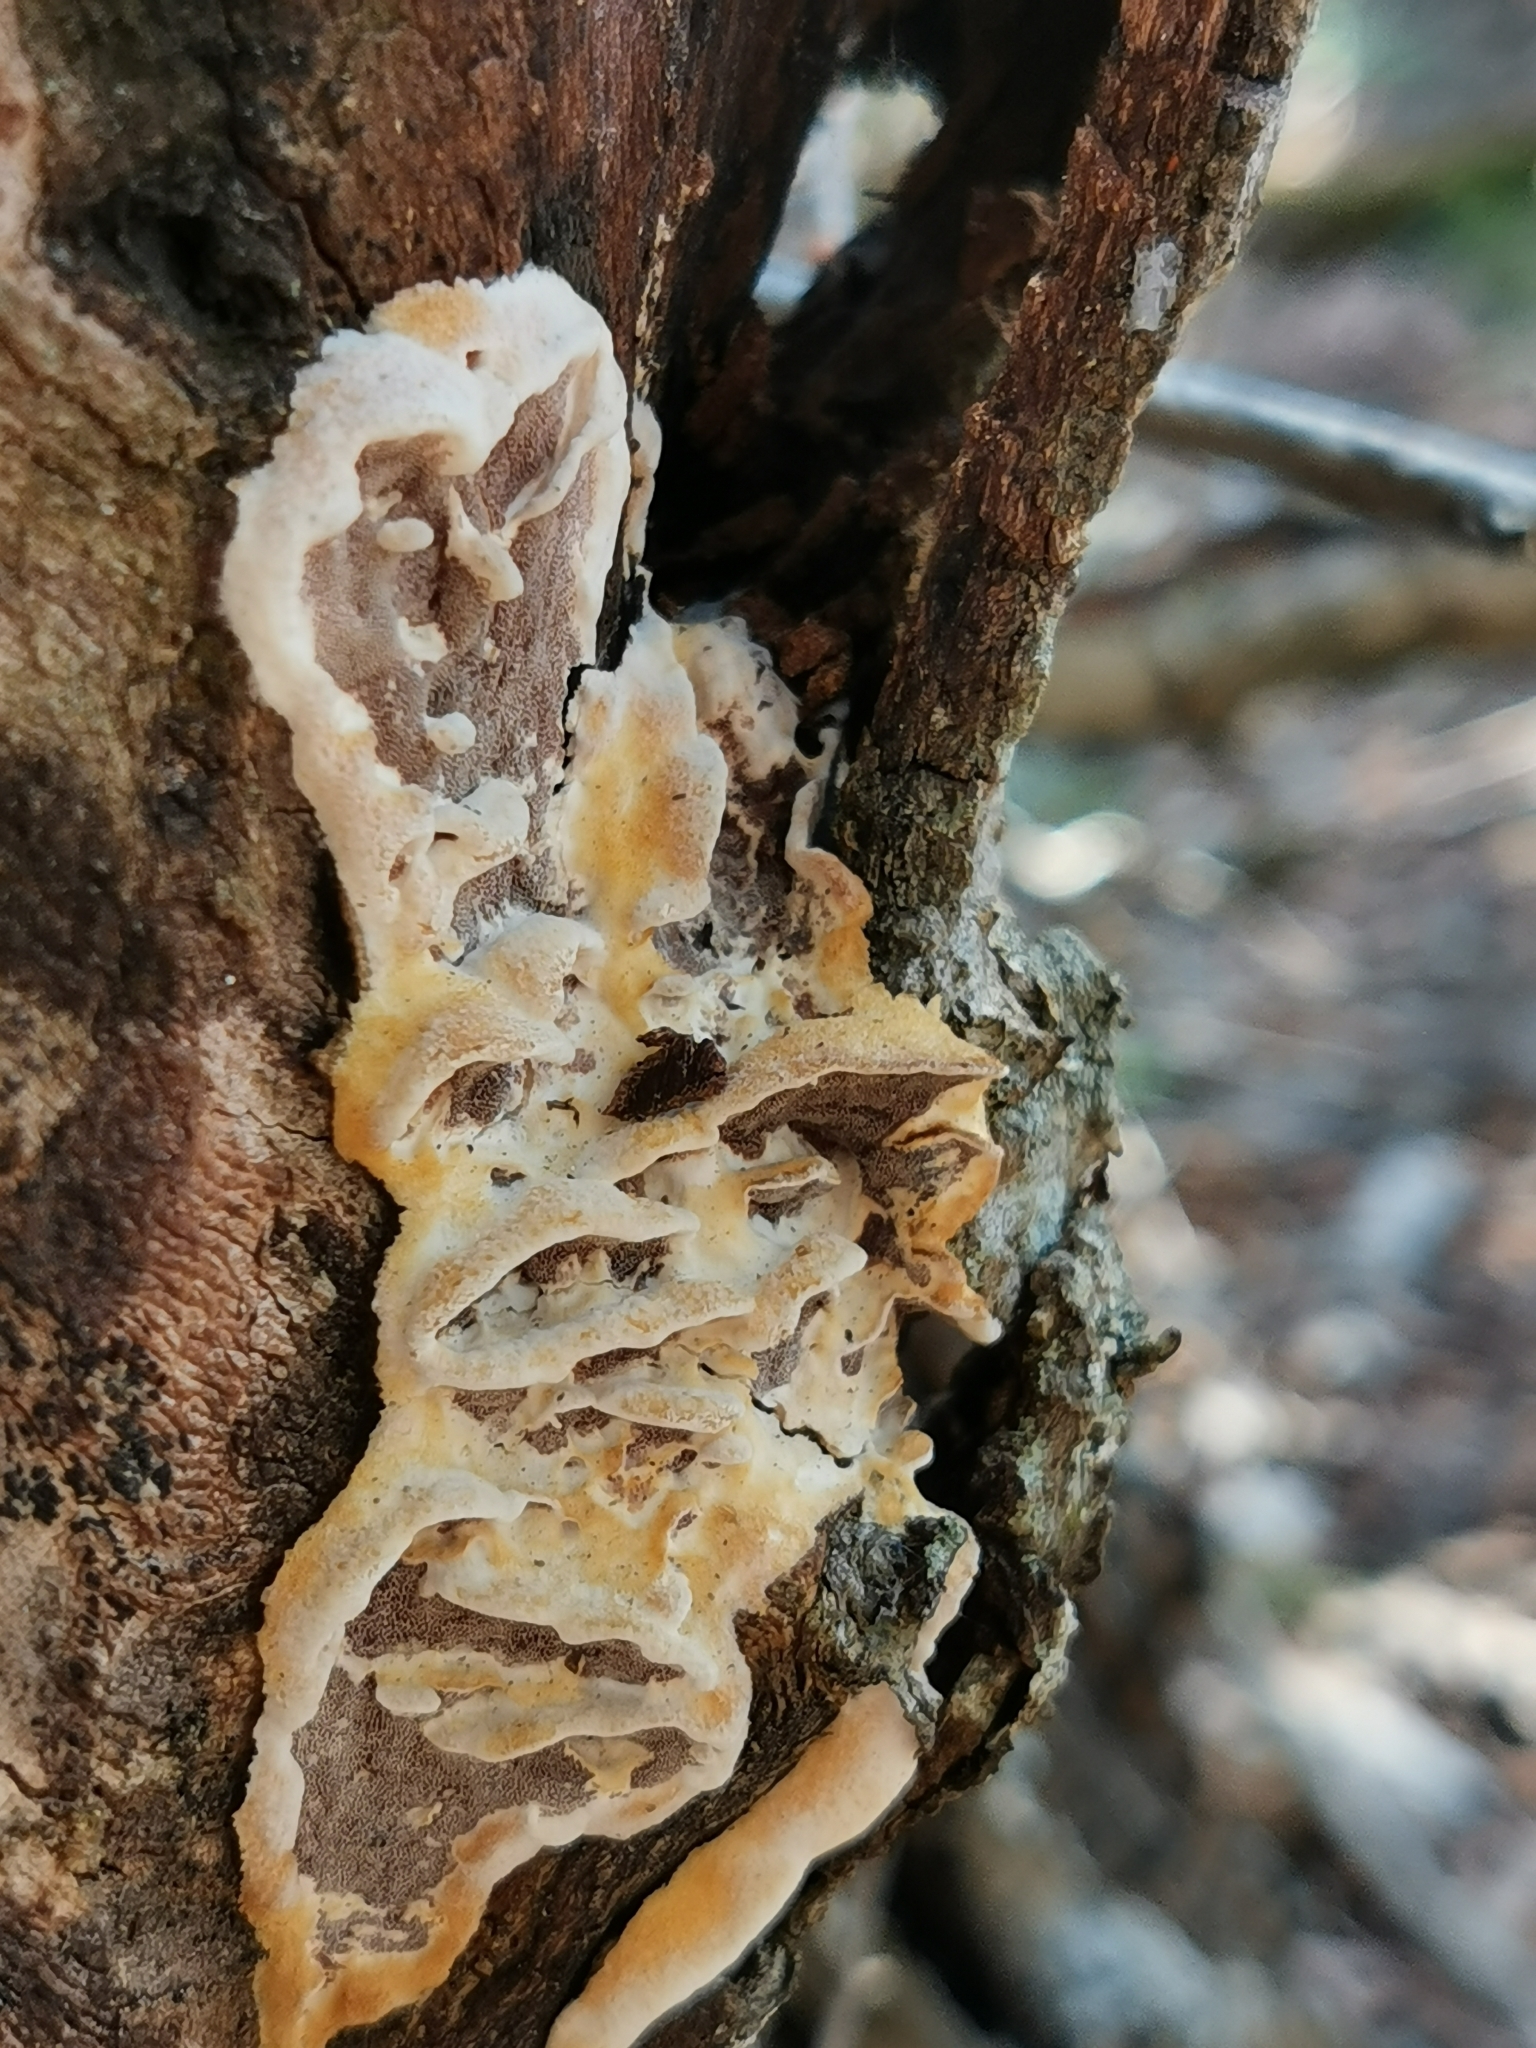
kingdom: Fungi
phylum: Basidiomycota
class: Agaricomycetes
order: Polyporales
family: Irpicaceae
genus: Vitreoporus
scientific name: Vitreoporus dichrous
